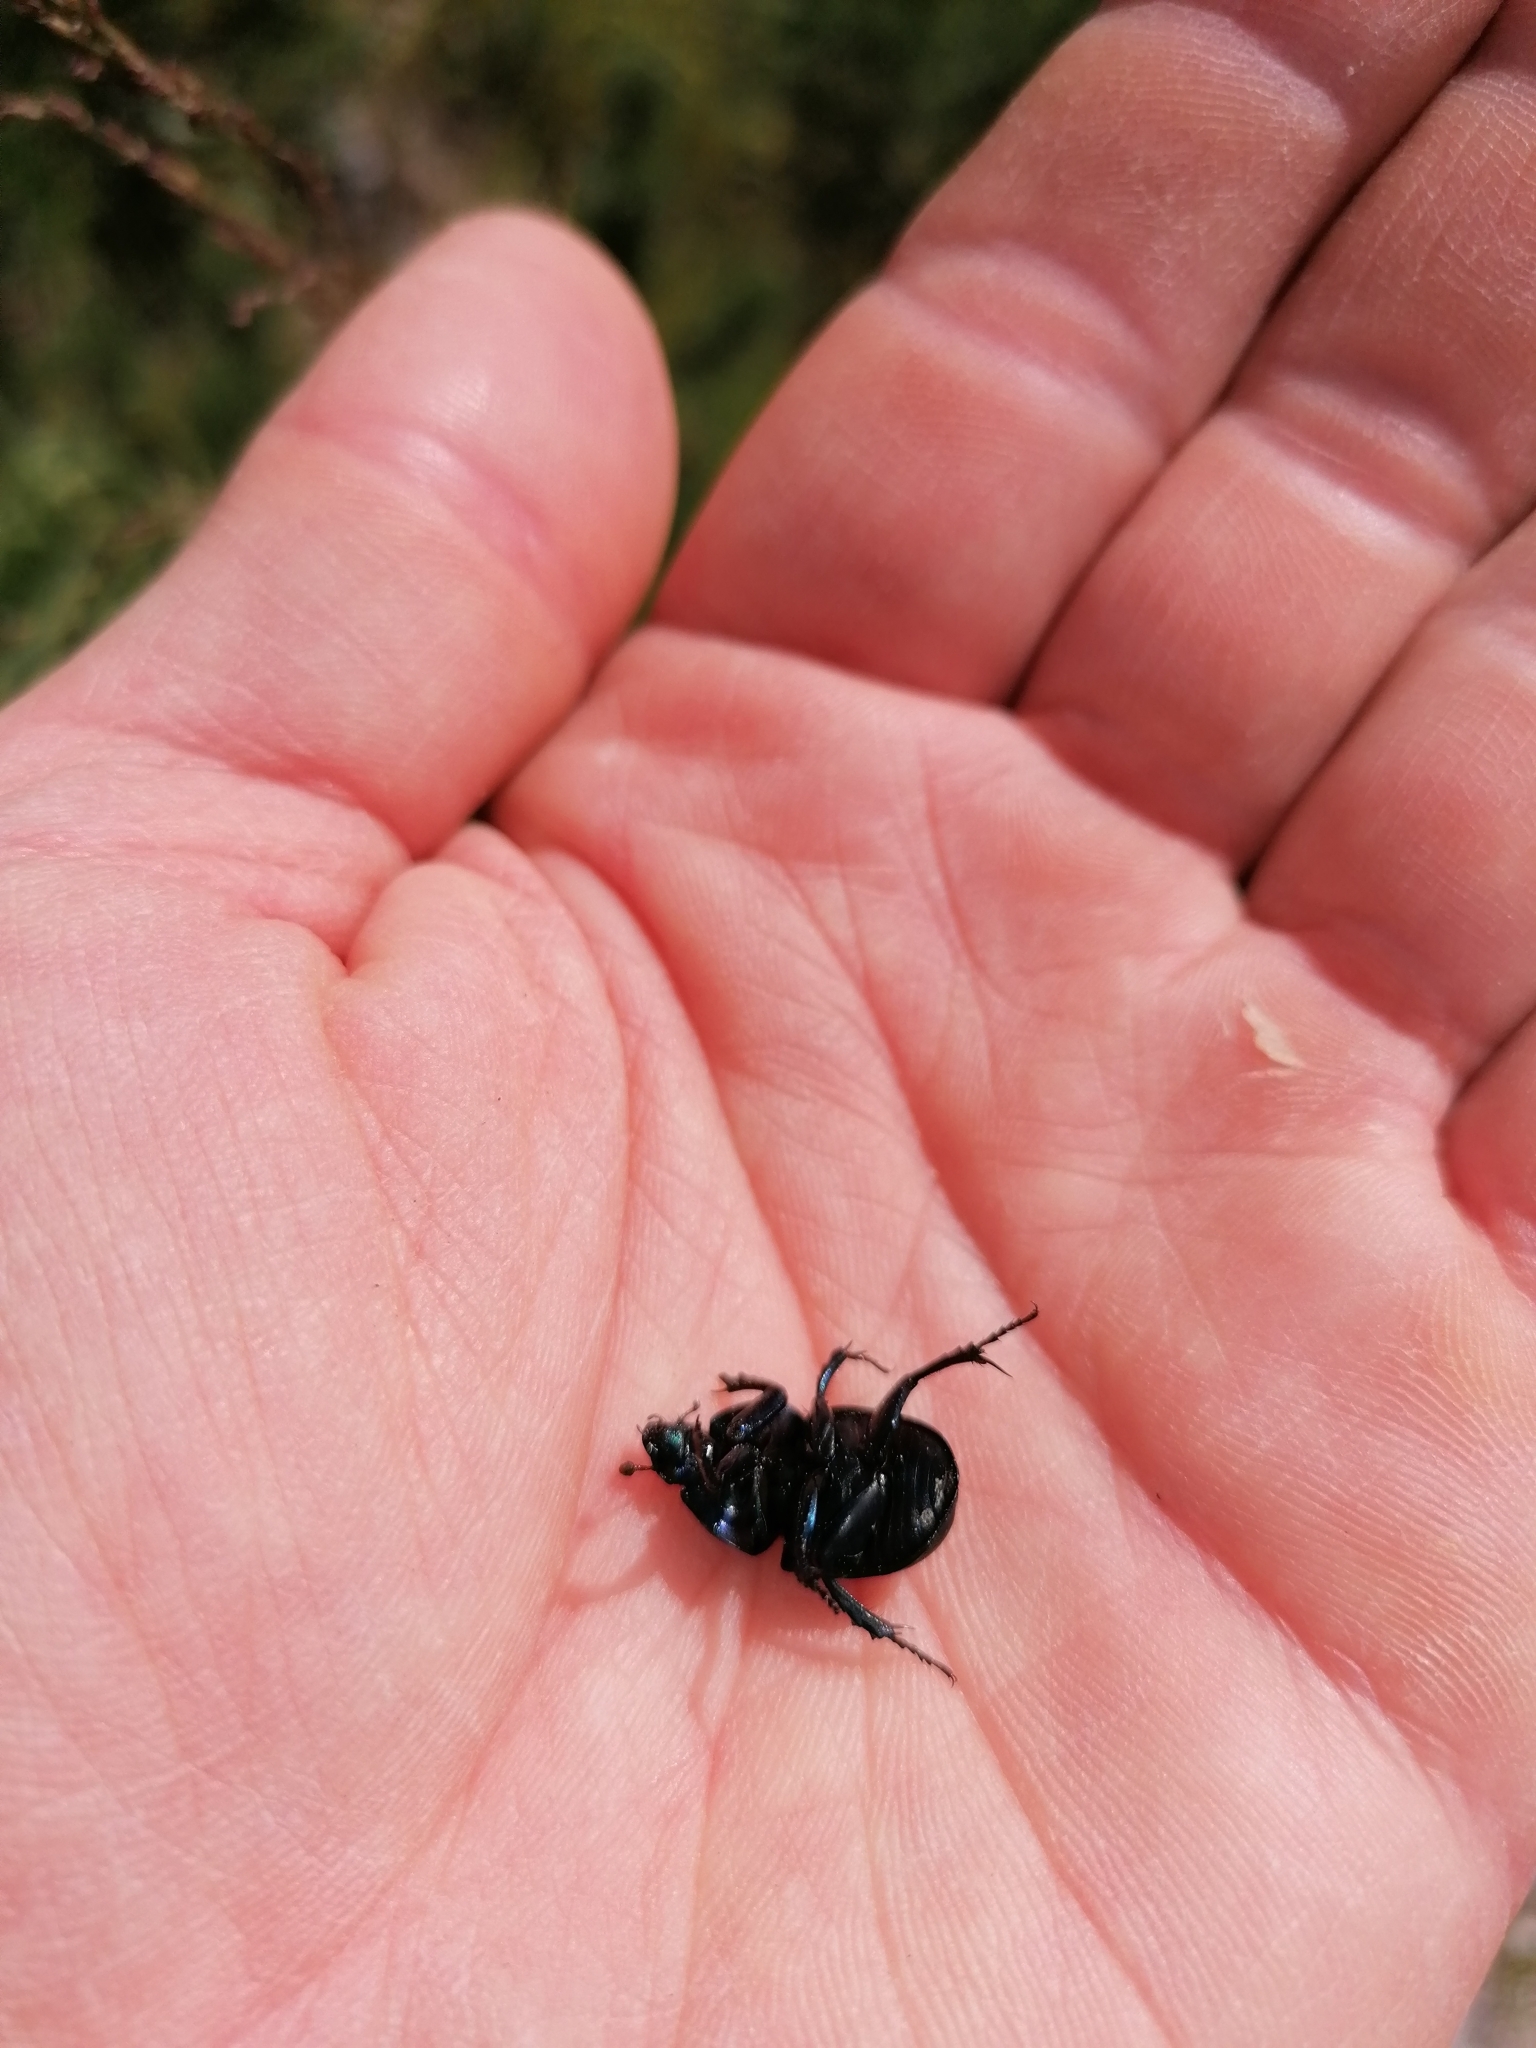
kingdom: Animalia
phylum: Arthropoda
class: Insecta
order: Coleoptera
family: Geotrupidae
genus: Trypocopris
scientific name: Trypocopris vernalis
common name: Spring dumbledor
